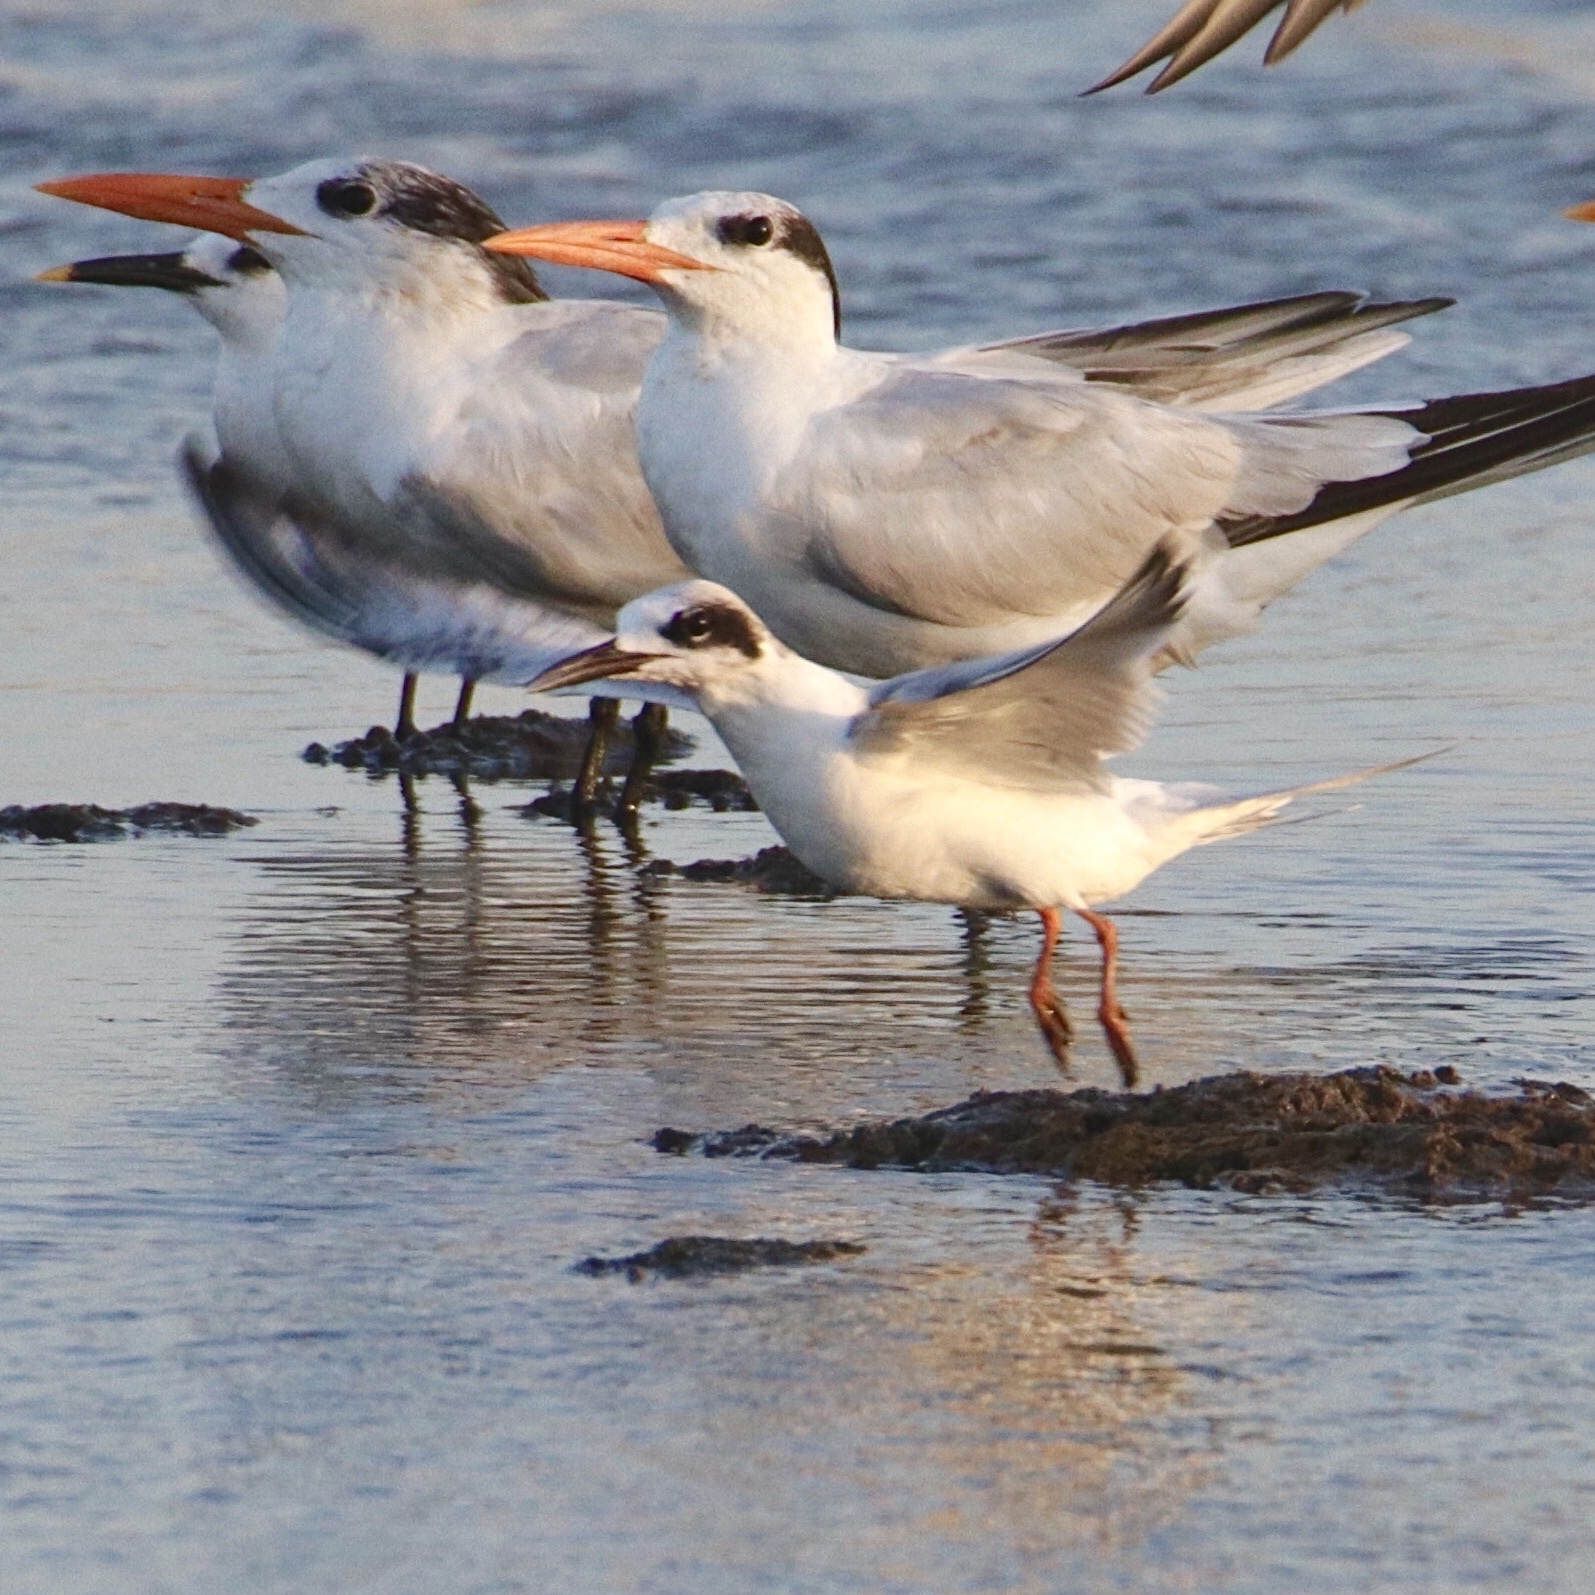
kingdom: Animalia
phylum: Chordata
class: Aves
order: Charadriiformes
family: Laridae
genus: Sterna
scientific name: Sterna forsteri
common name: Forster's tern
